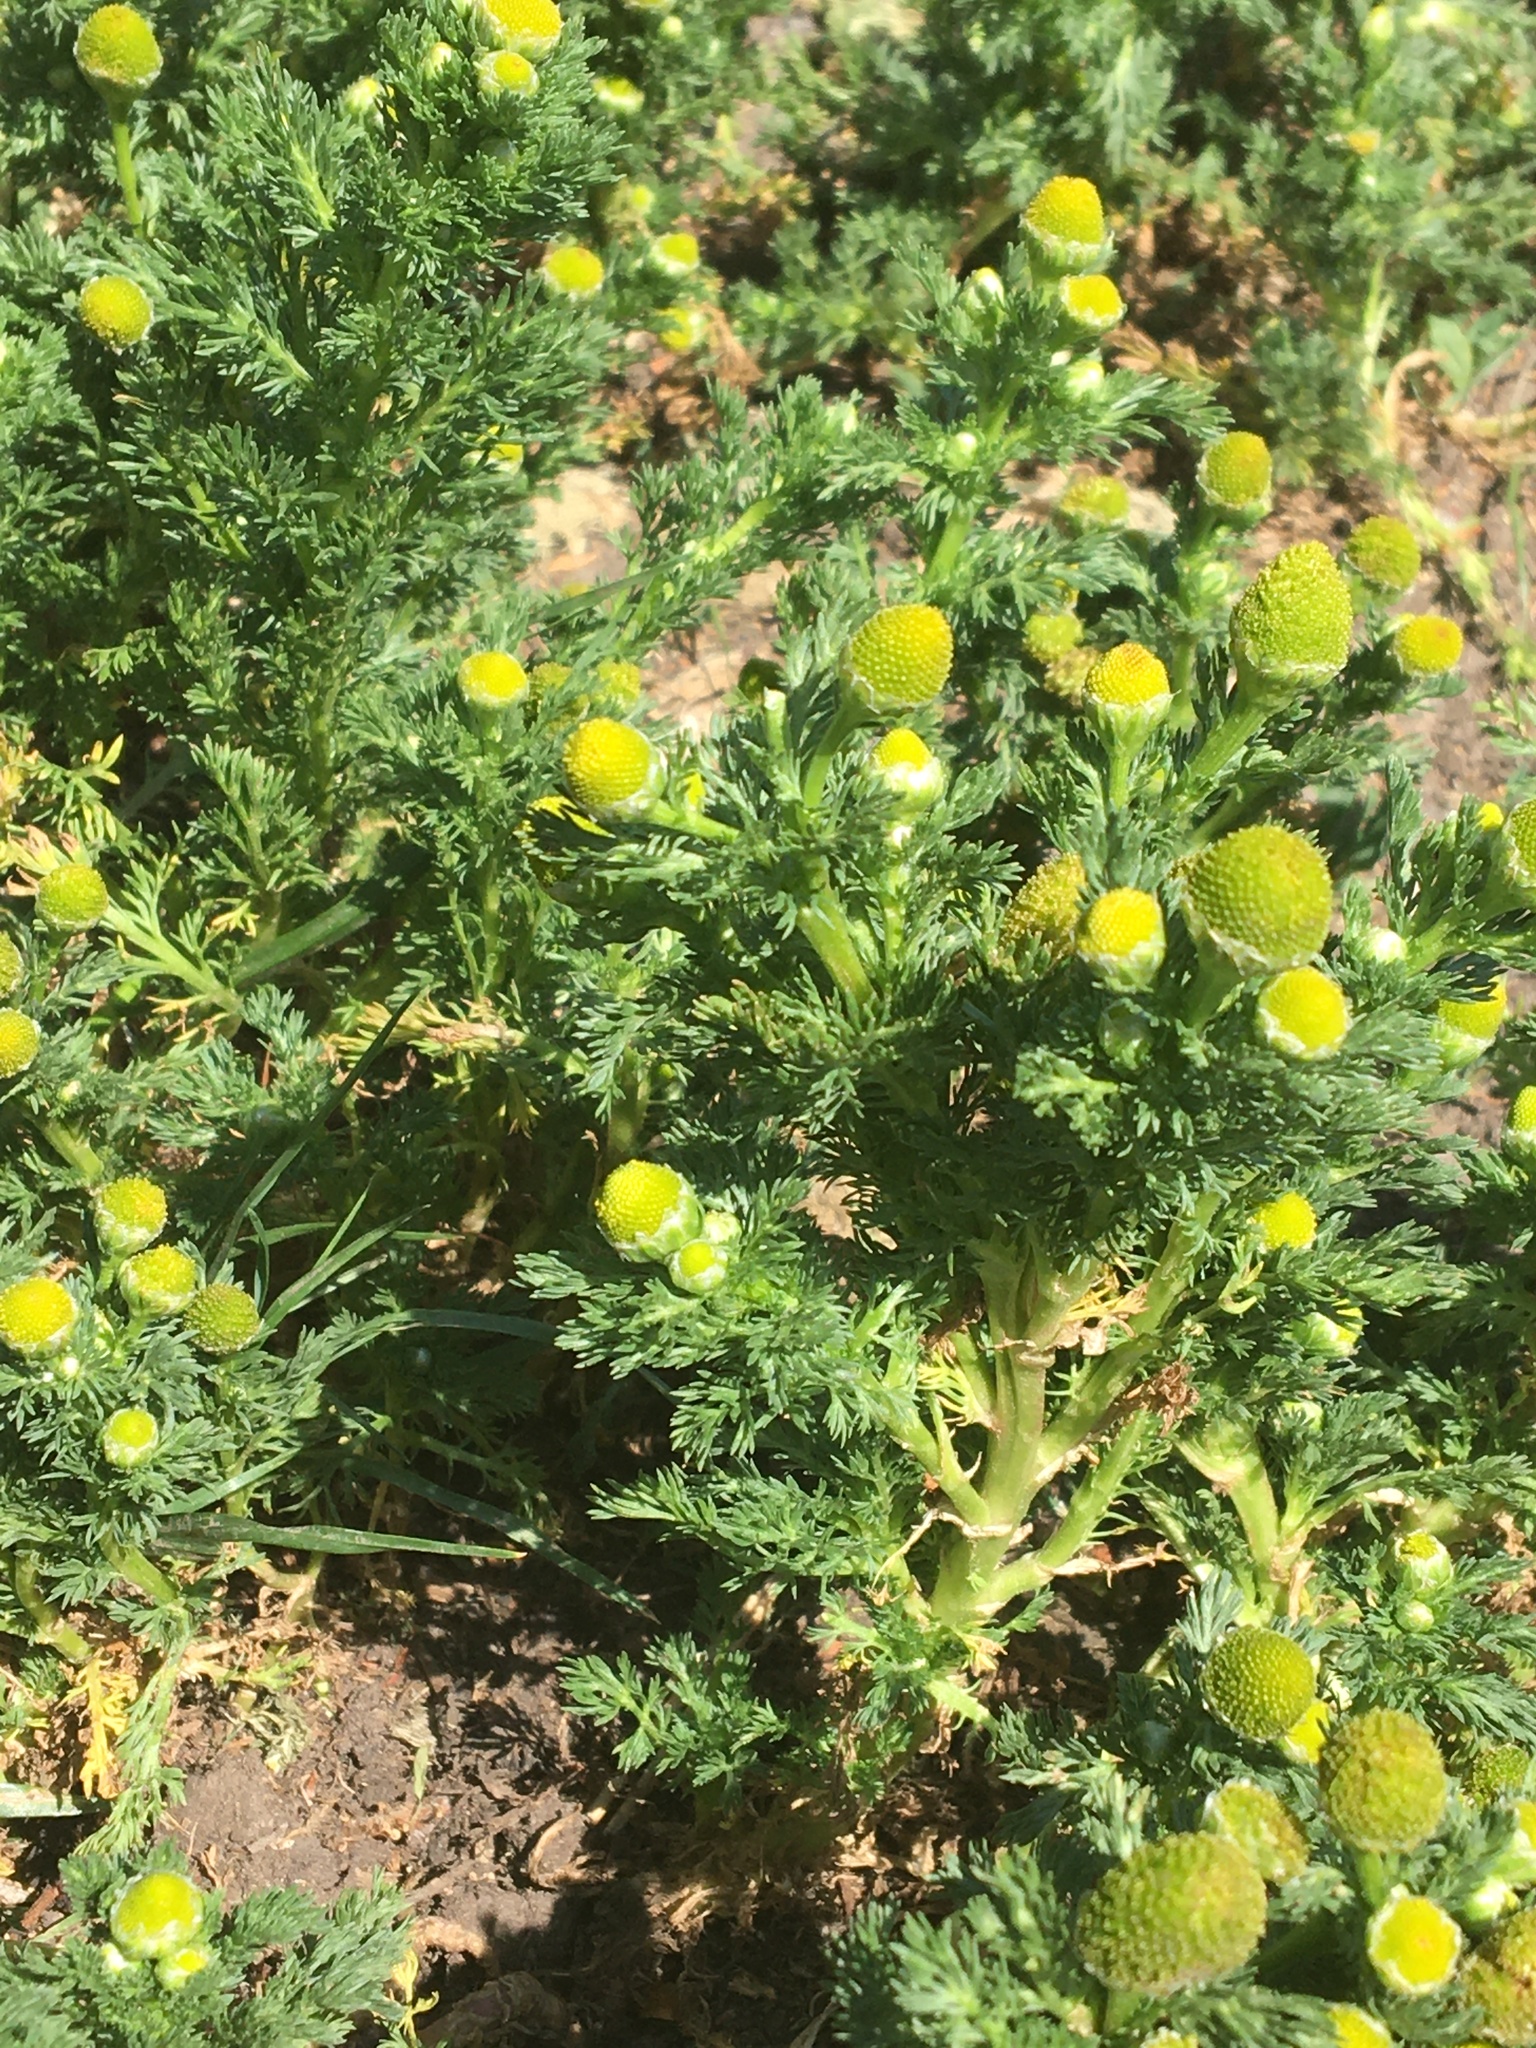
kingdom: Plantae
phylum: Tracheophyta
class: Magnoliopsida
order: Asterales
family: Asteraceae
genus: Matricaria
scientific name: Matricaria discoidea
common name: Disc mayweed
